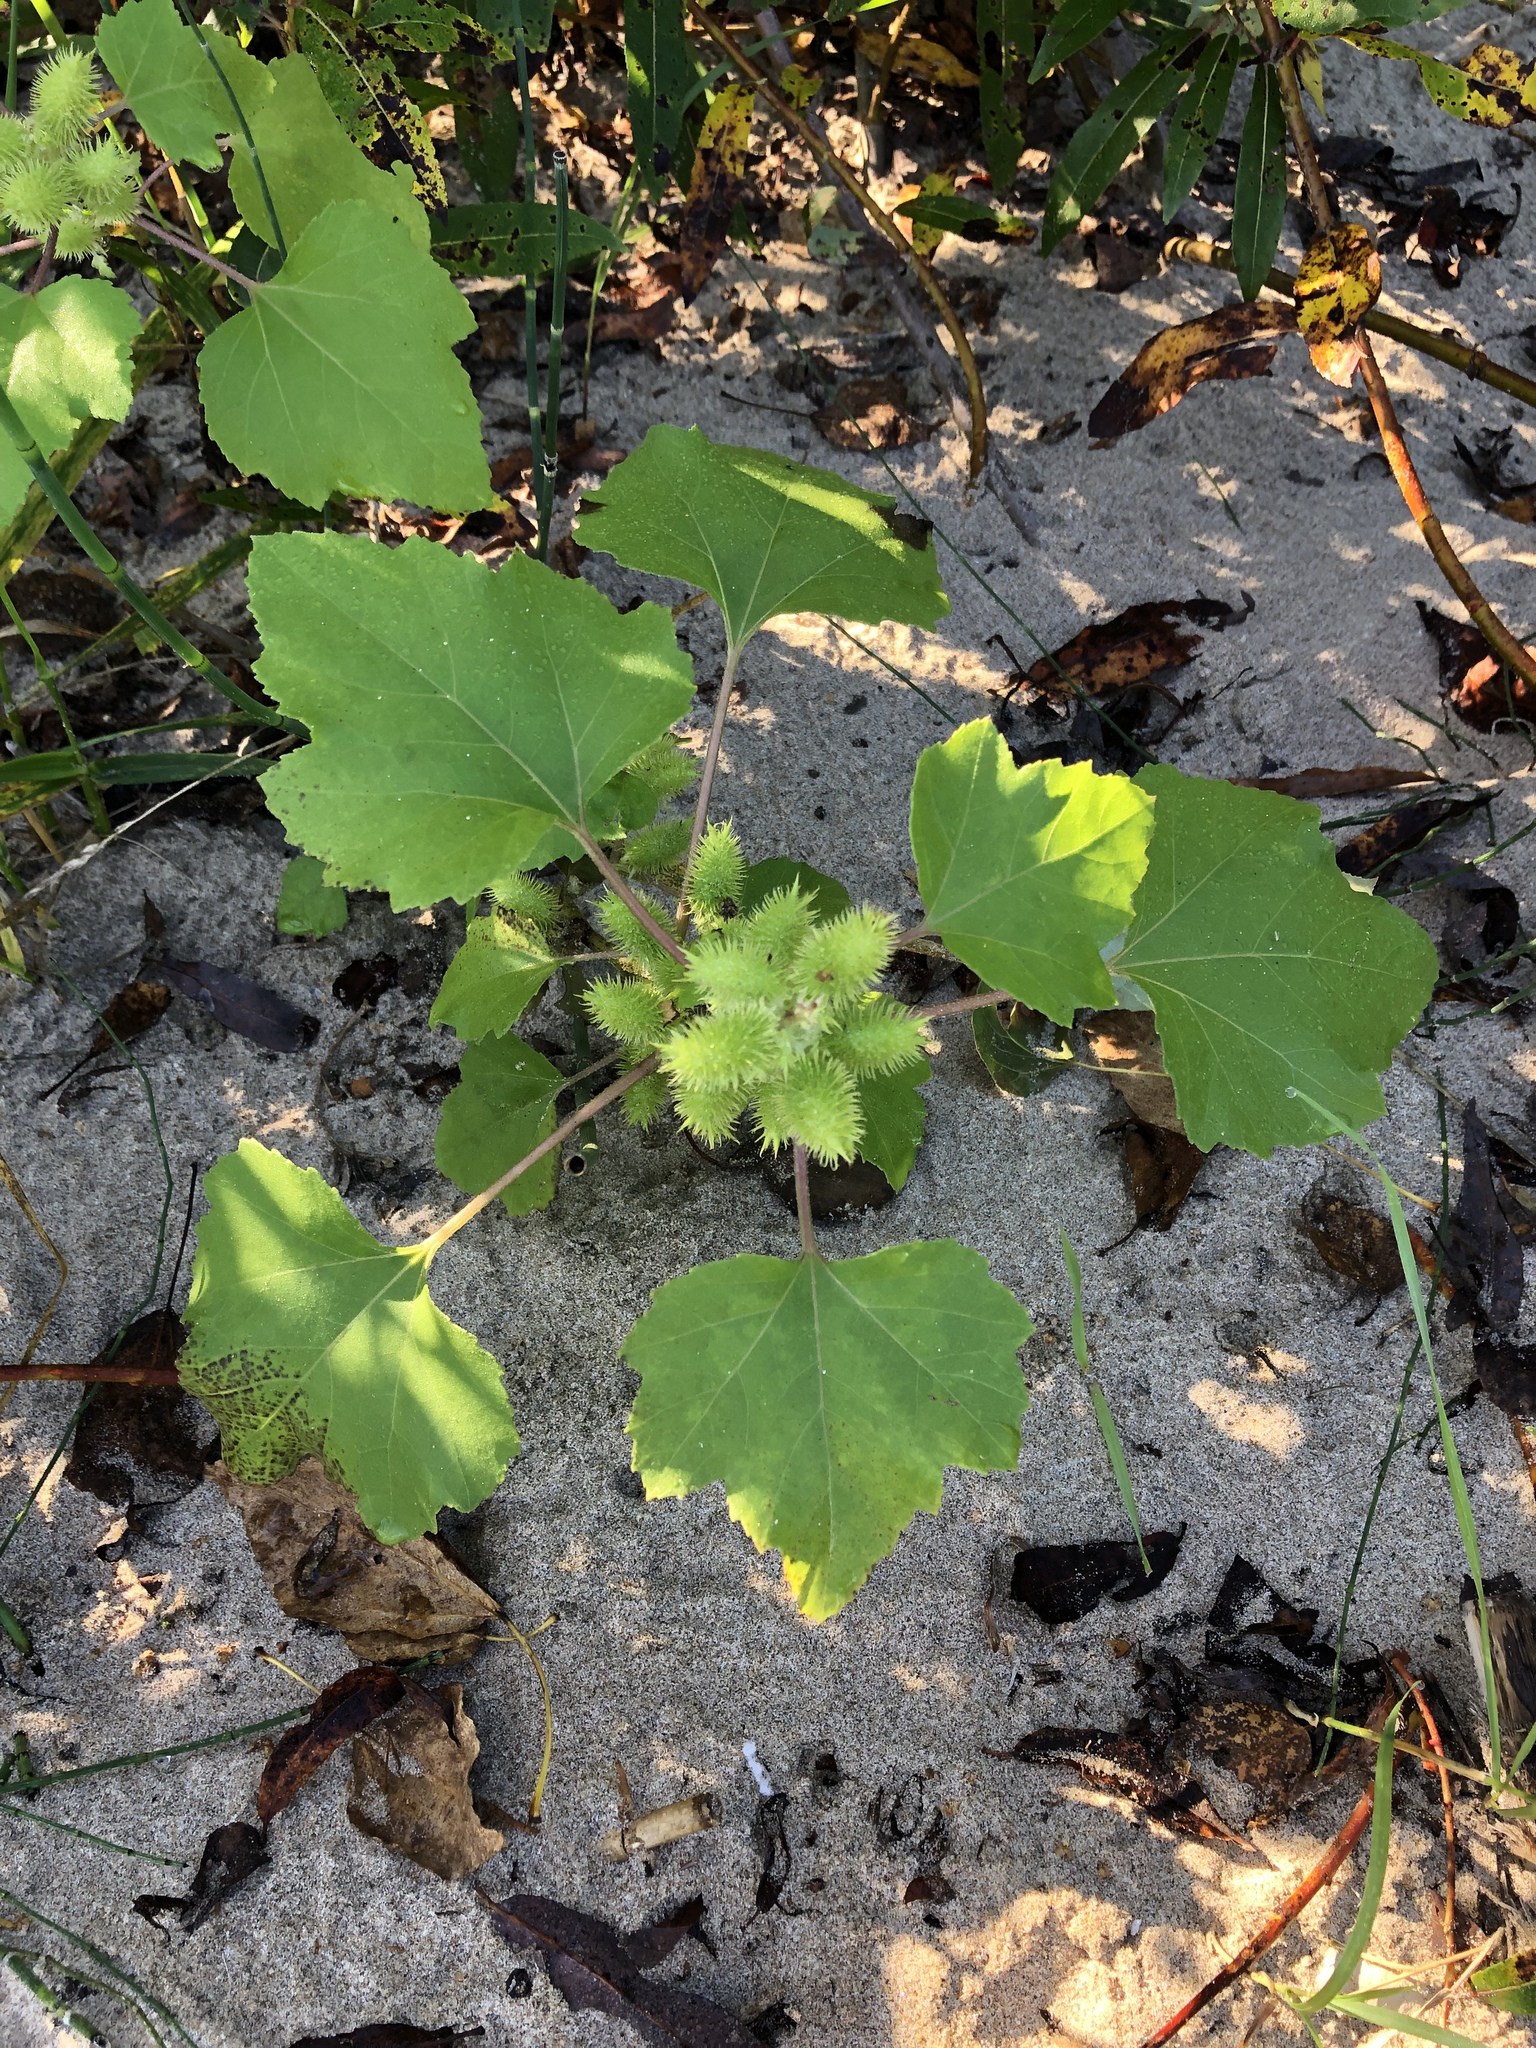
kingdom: Plantae
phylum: Tracheophyta
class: Magnoliopsida
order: Asterales
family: Asteraceae
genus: Xanthium
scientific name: Xanthium strumarium
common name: Rough cocklebur
